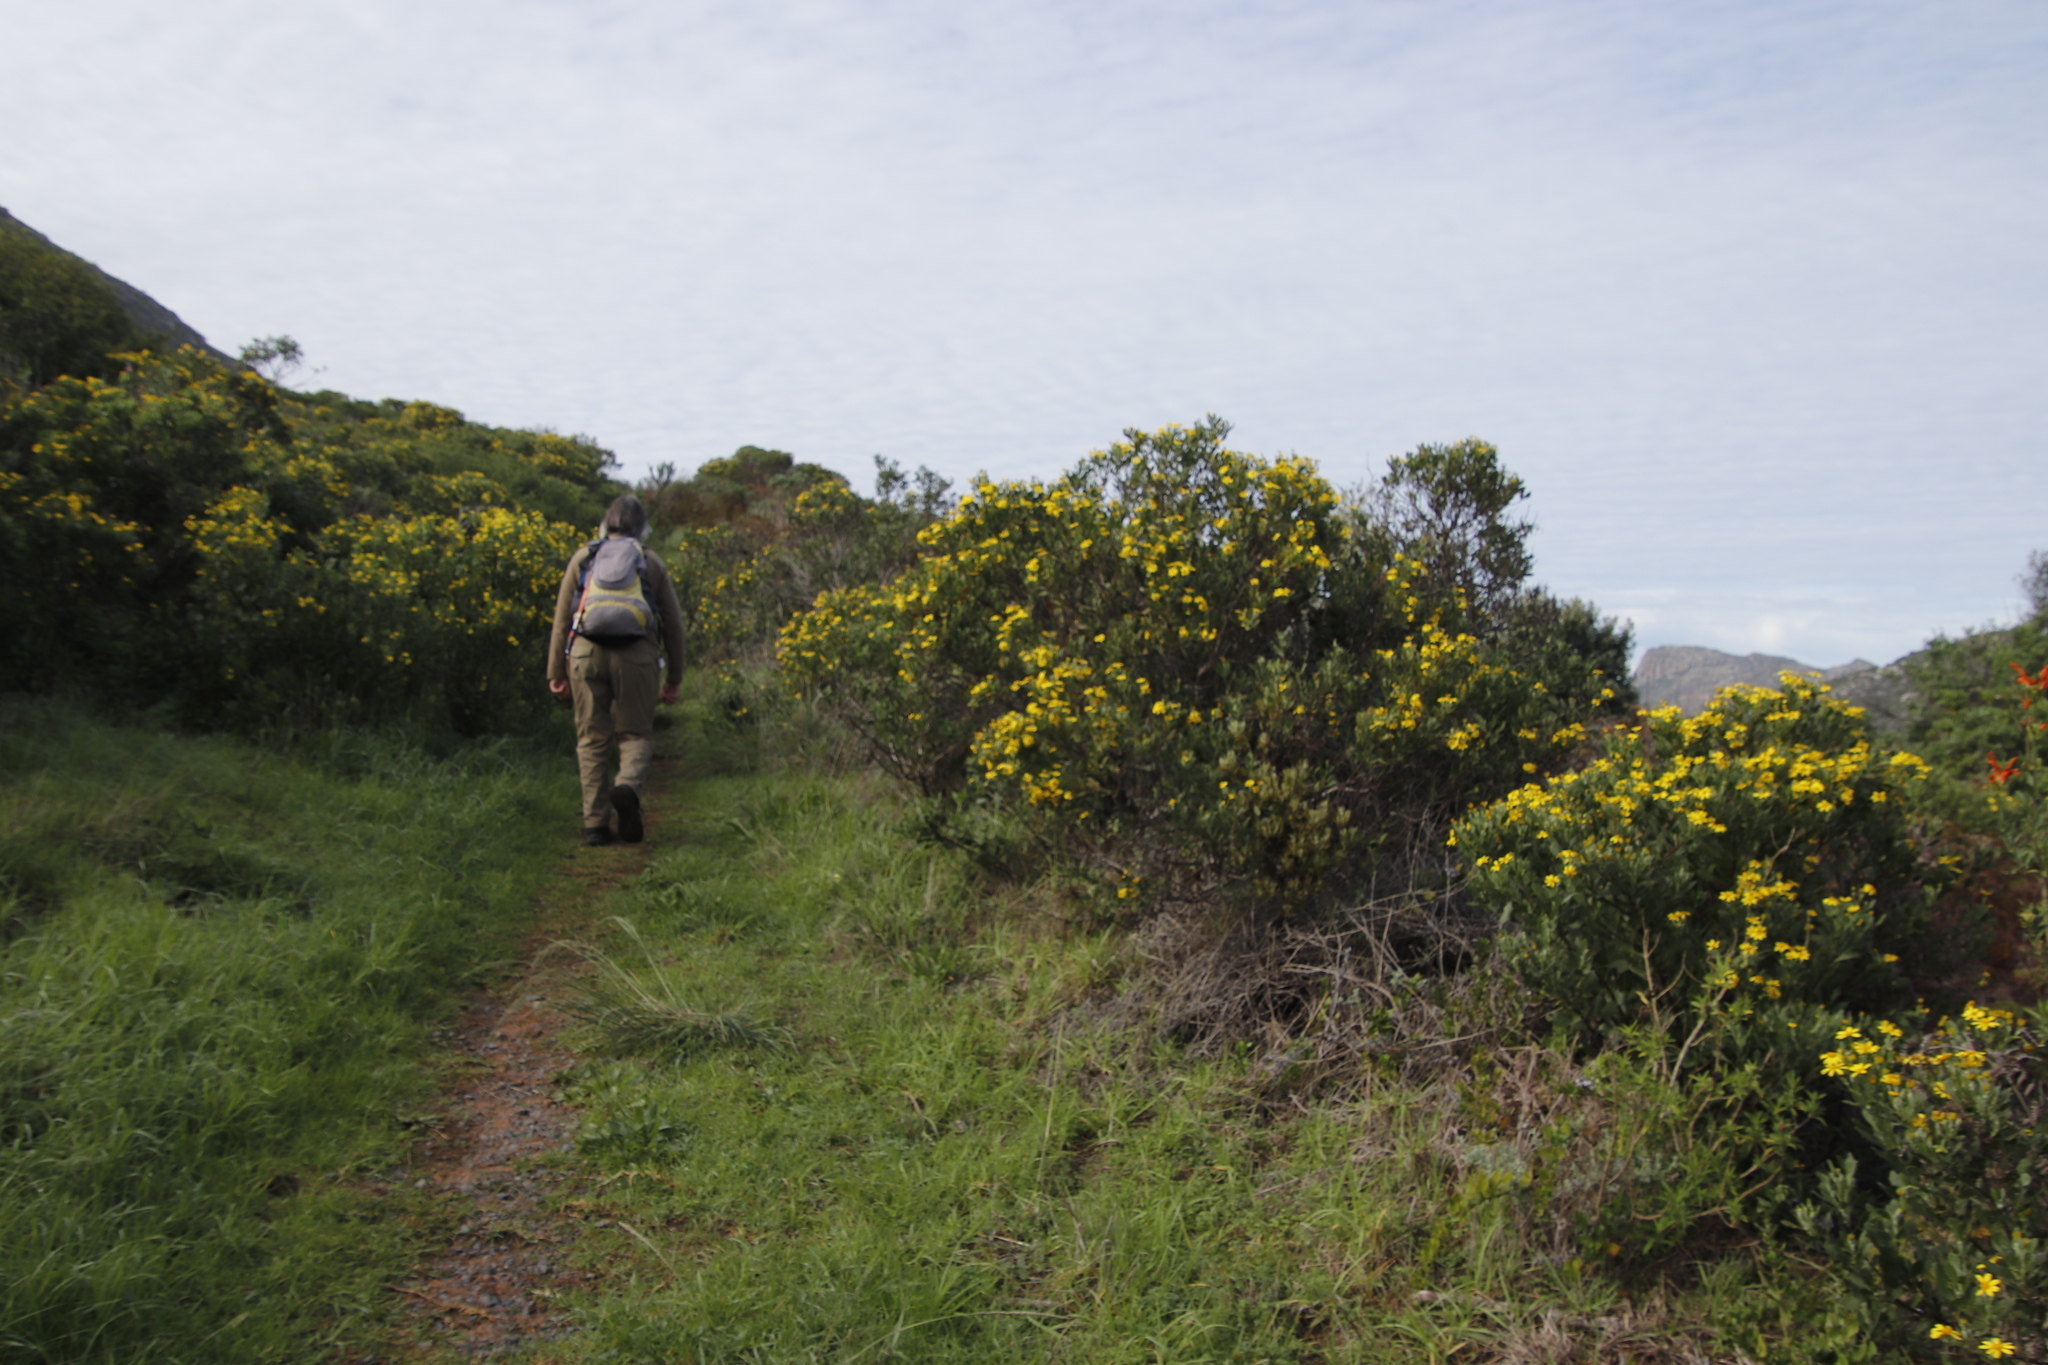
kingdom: Plantae
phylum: Tracheophyta
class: Magnoliopsida
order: Asterales
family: Asteraceae
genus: Osteospermum
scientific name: Osteospermum moniliferum
